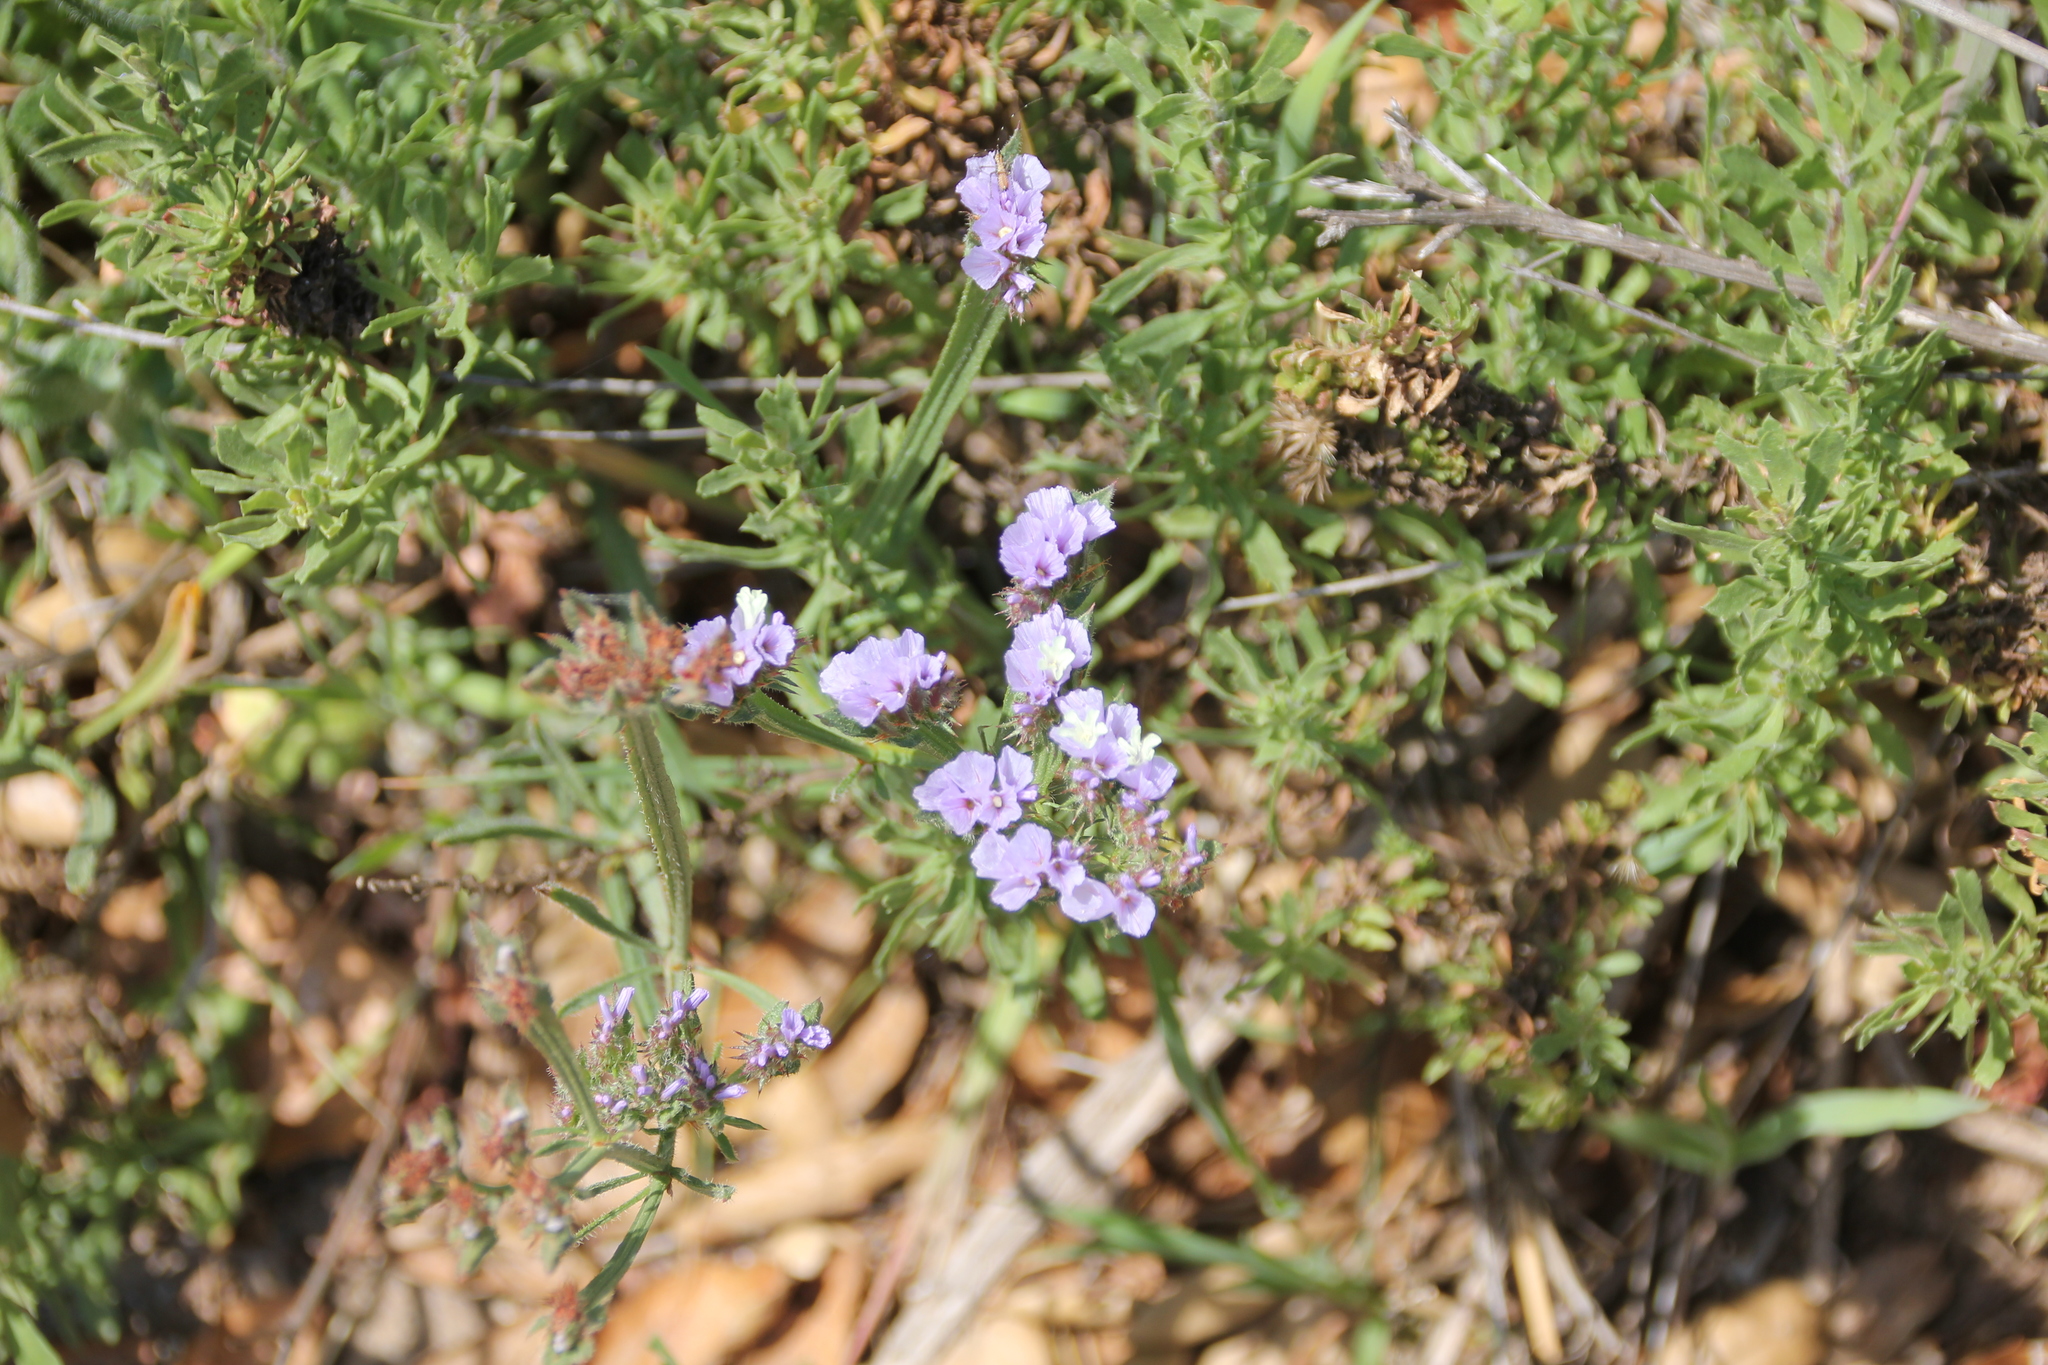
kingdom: Plantae
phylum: Tracheophyta
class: Magnoliopsida
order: Caryophyllales
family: Plumbaginaceae
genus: Limonium
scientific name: Limonium sinuatum
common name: Statice
